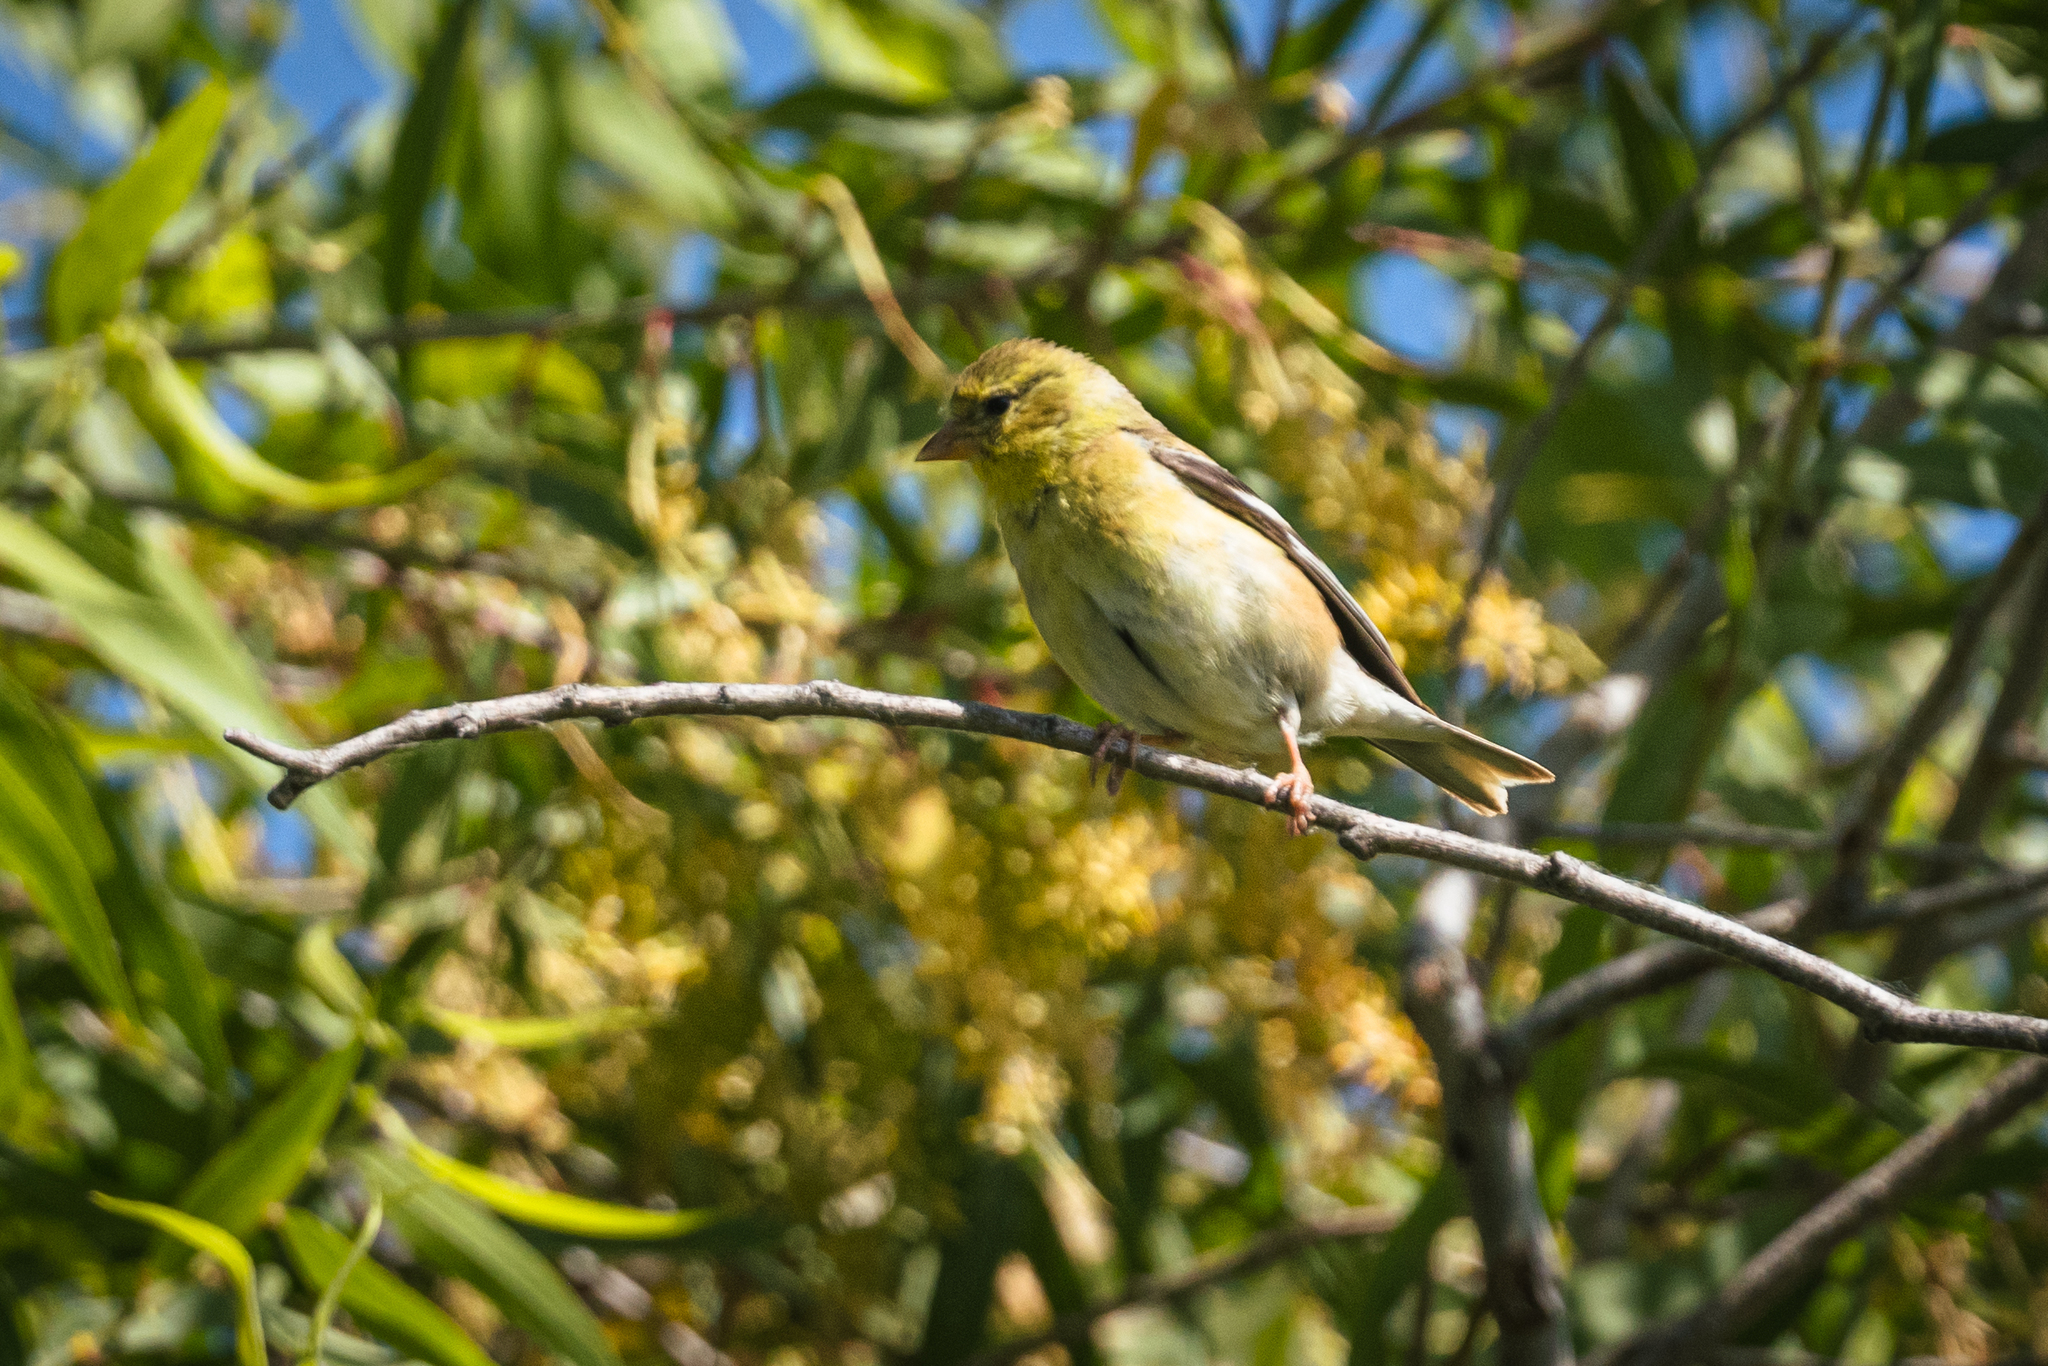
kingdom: Animalia
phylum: Chordata
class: Aves
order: Passeriformes
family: Fringillidae
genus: Spinus
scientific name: Spinus tristis
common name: American goldfinch
